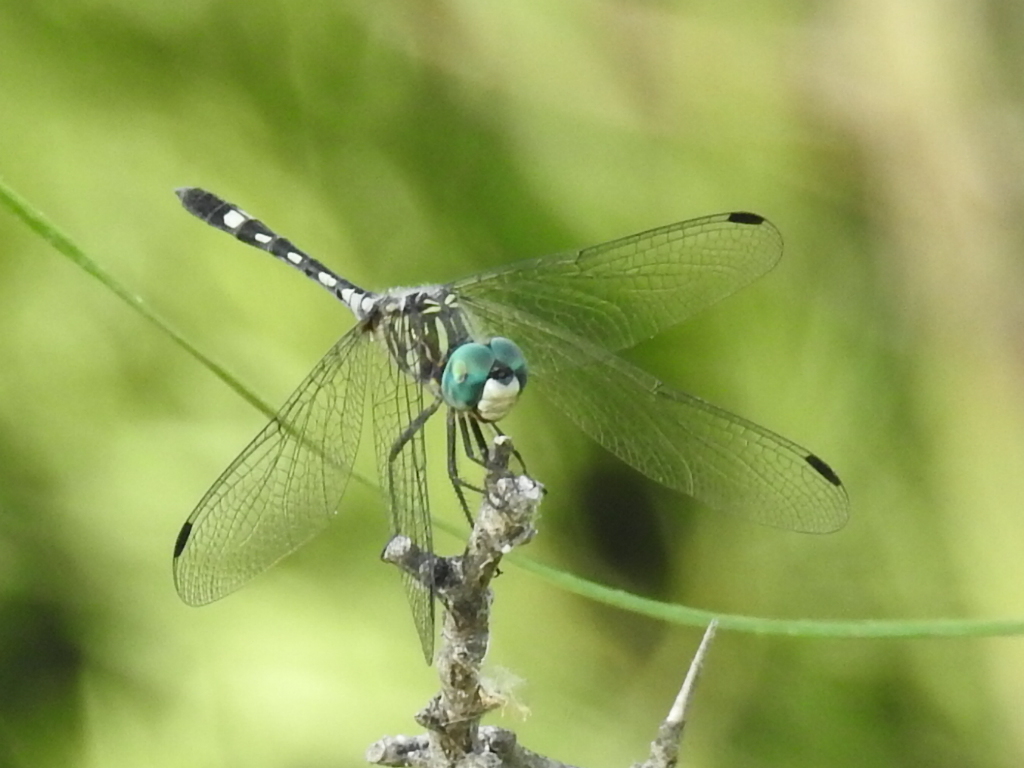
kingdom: Animalia
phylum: Arthropoda
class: Insecta
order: Odonata
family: Libellulidae
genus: Micrathyria
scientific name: Micrathyria hagenii
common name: Thornbush dasher
